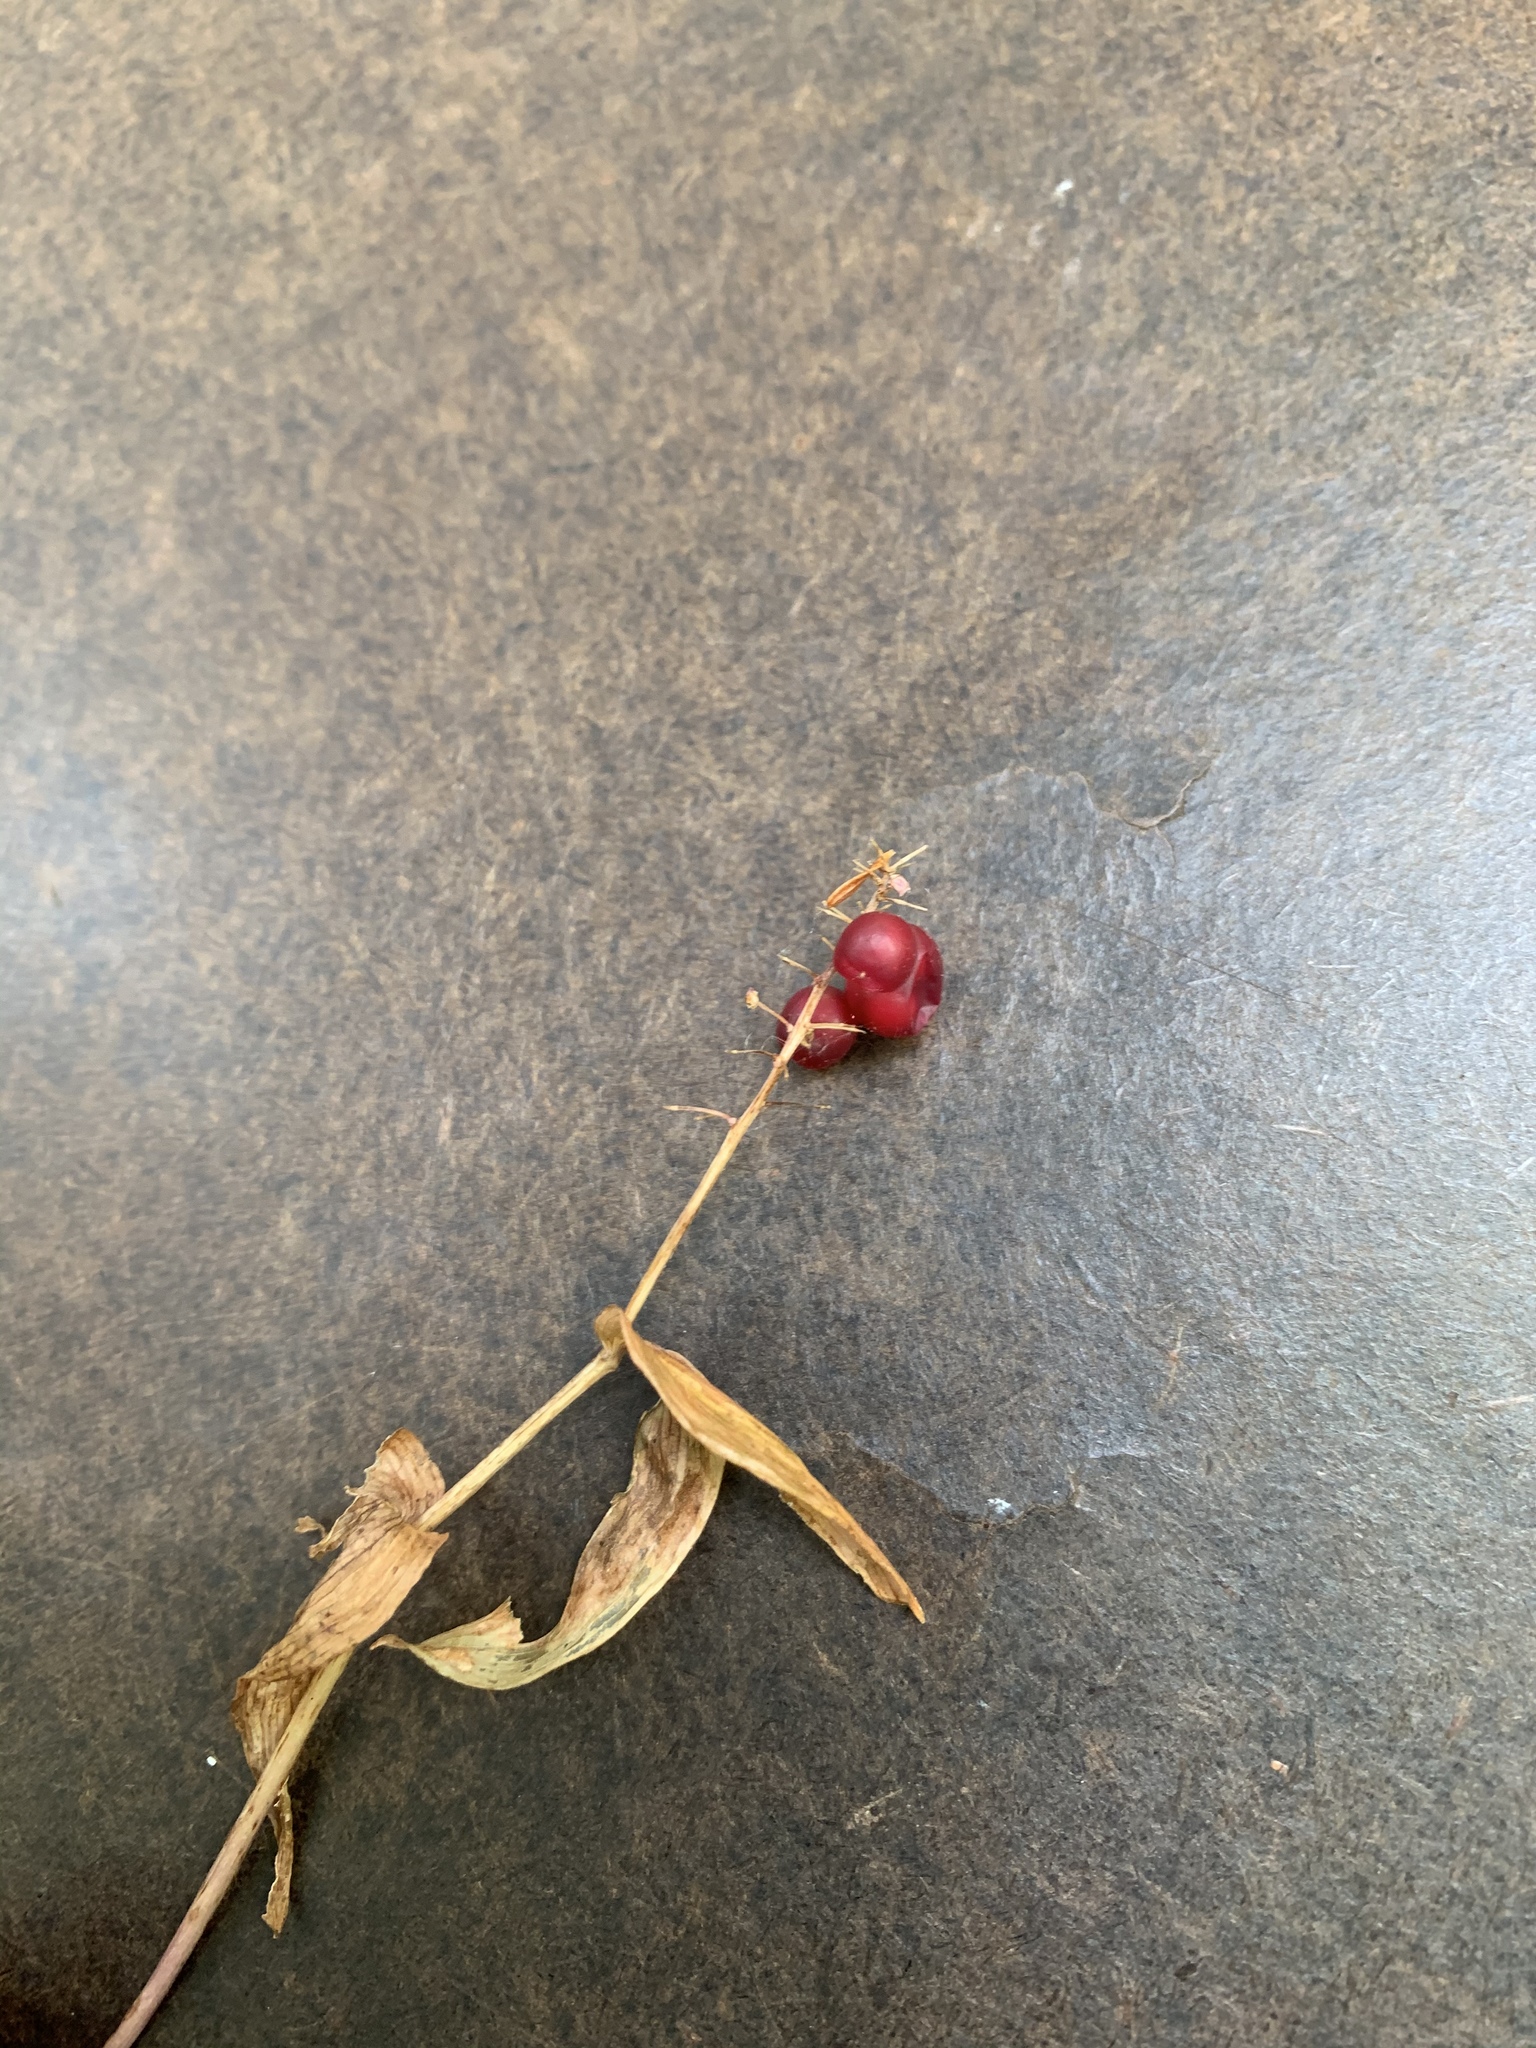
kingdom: Plantae
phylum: Tracheophyta
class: Liliopsida
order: Asparagales
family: Asparagaceae
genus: Maianthemum
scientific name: Maianthemum canadense
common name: False lily-of-the-valley
